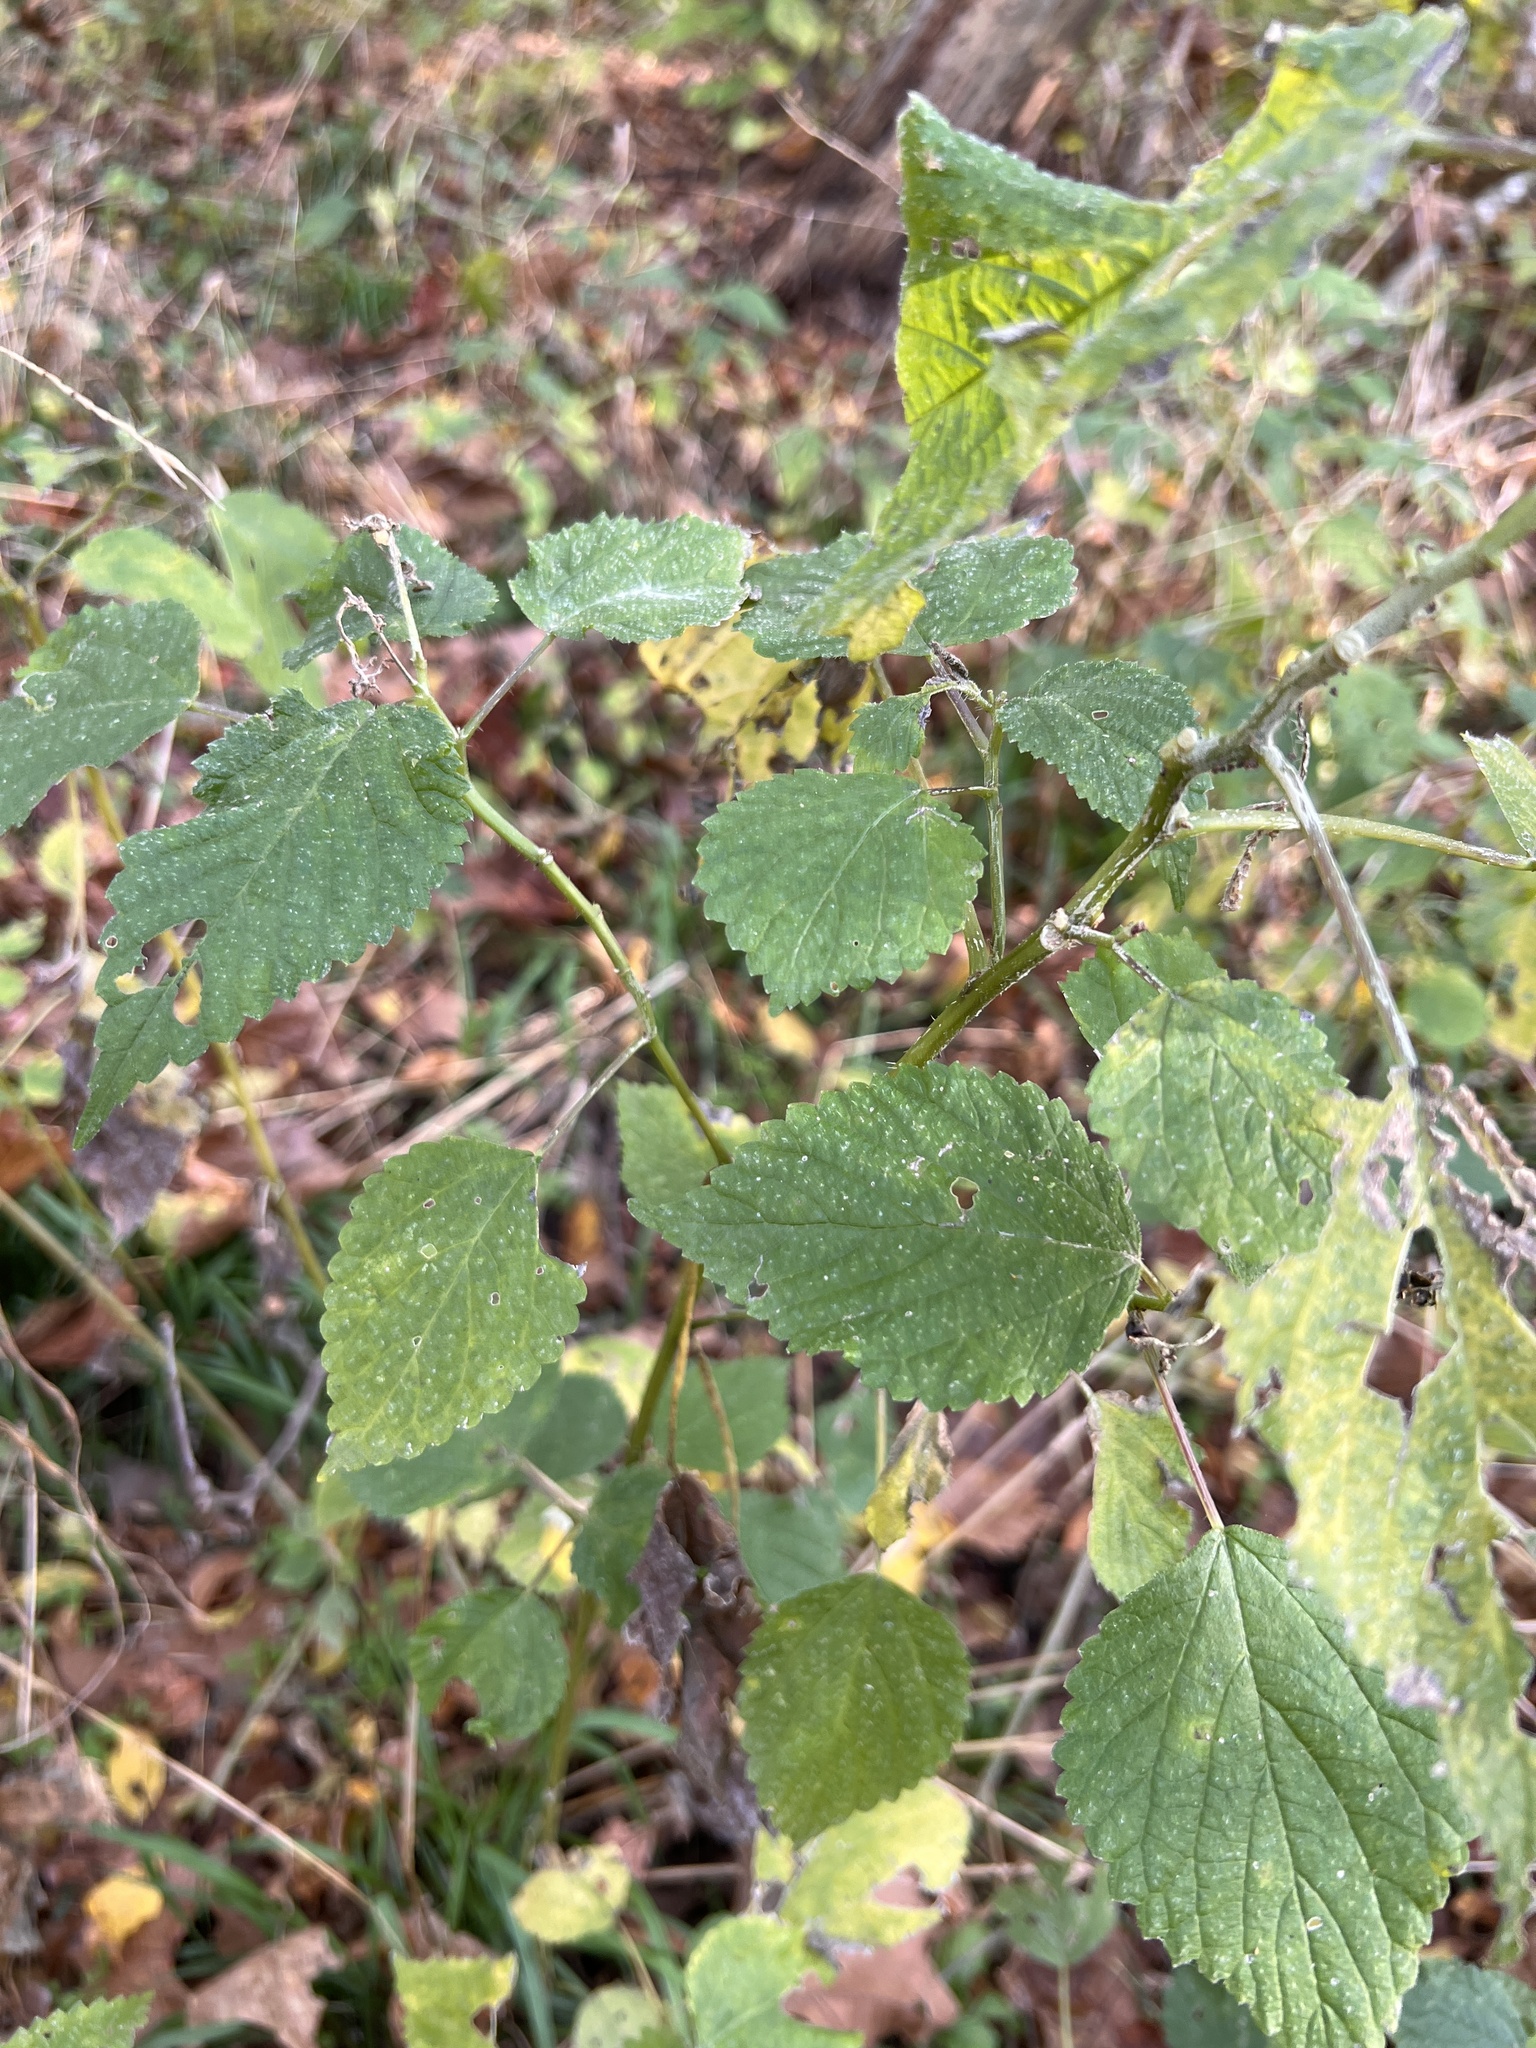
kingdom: Plantae
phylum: Tracheophyta
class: Magnoliopsida
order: Rosales
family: Urticaceae
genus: Laportea
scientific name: Laportea canadensis
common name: Canada nettle
